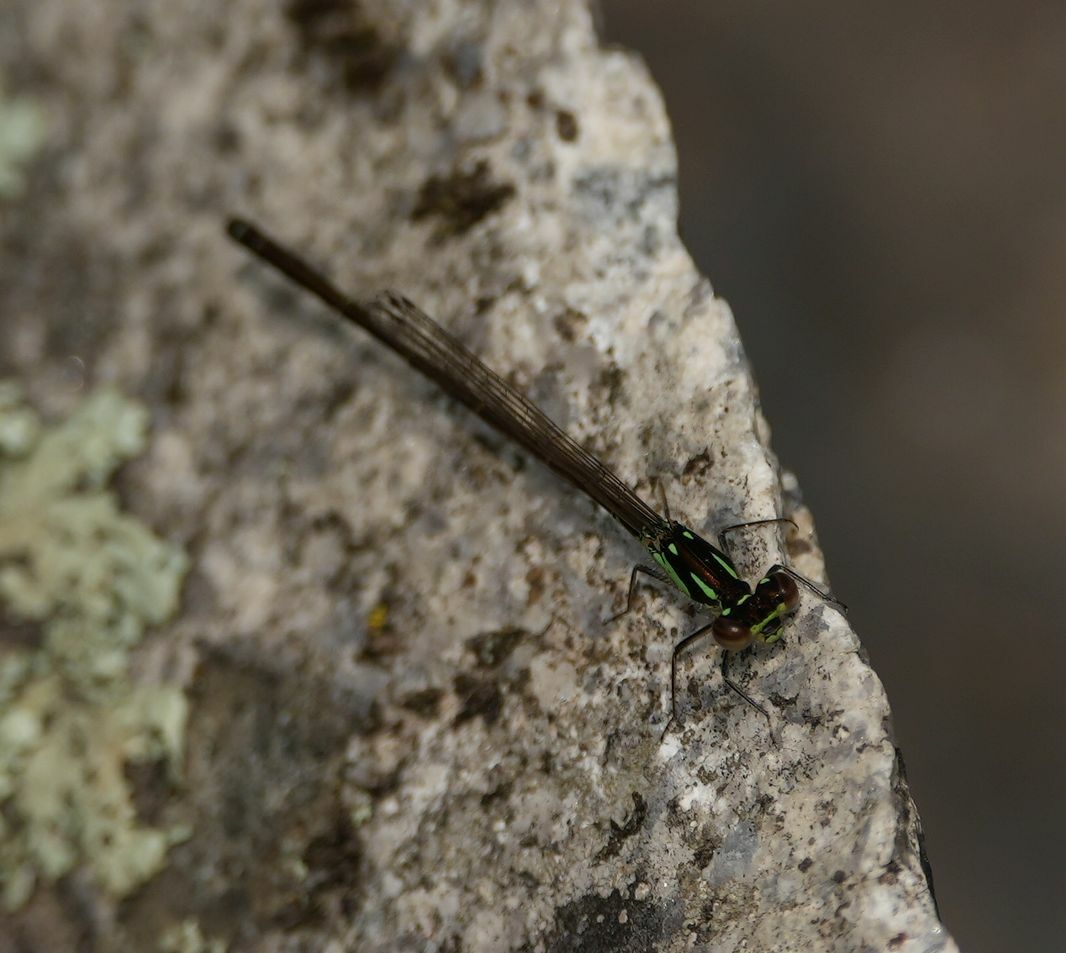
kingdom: Animalia
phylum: Arthropoda
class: Insecta
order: Odonata
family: Coenagrionidae
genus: Ischnura
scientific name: Ischnura posita
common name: Fragile forktail
